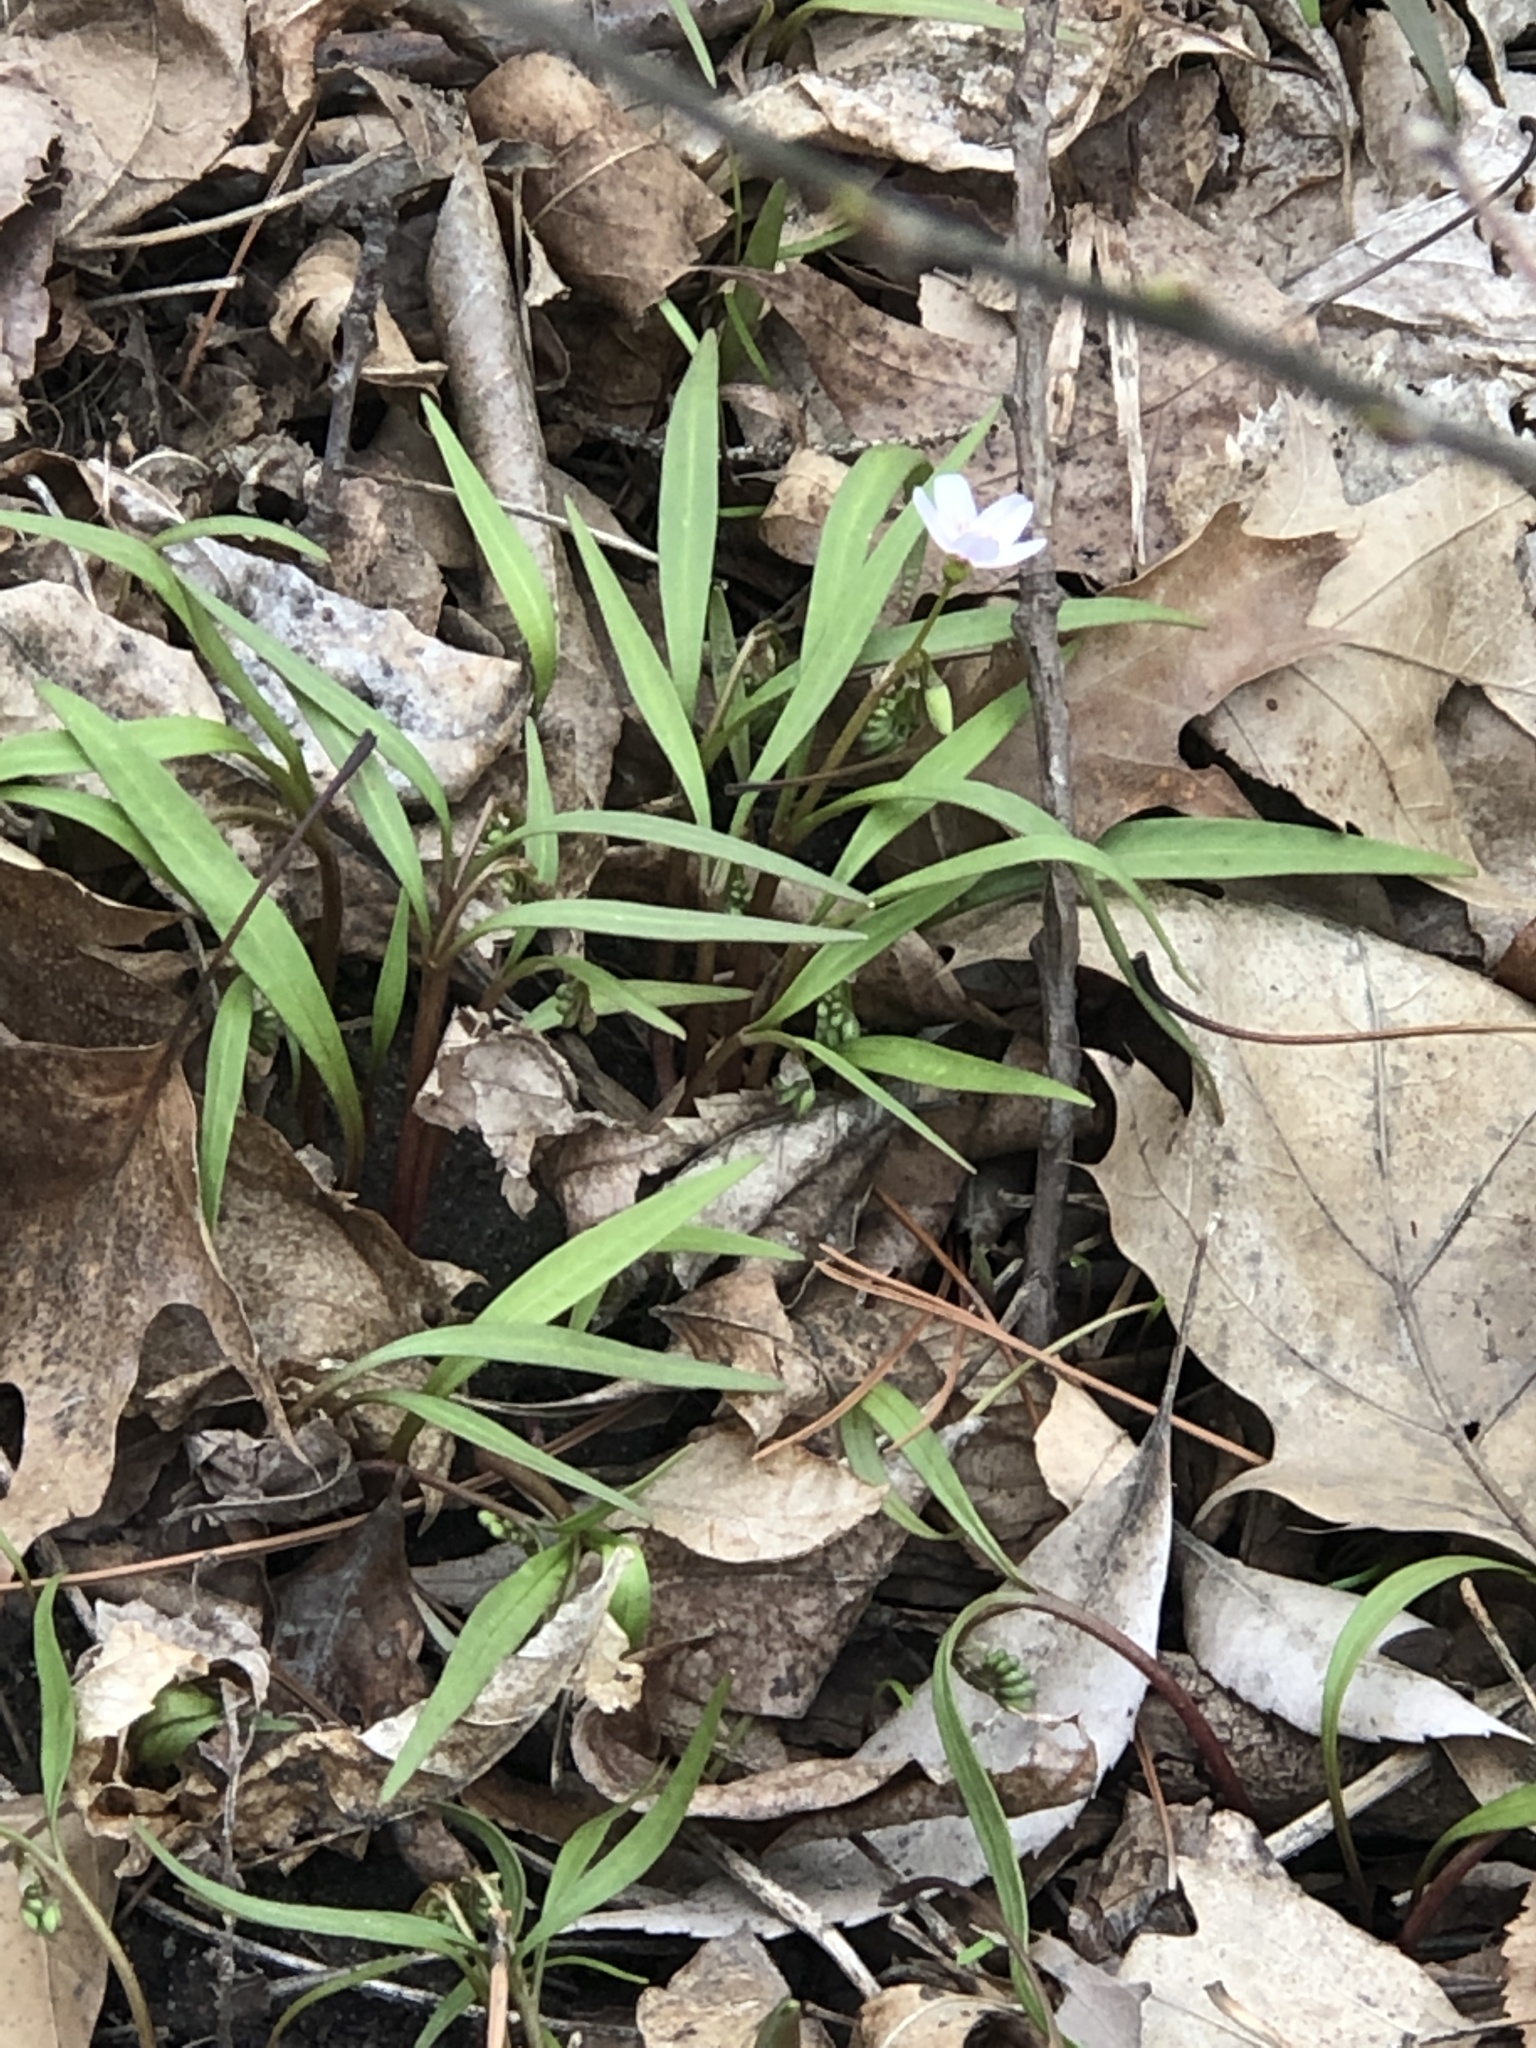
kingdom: Plantae
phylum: Tracheophyta
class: Magnoliopsida
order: Caryophyllales
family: Montiaceae
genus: Claytonia
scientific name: Claytonia virginica
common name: Virginia springbeauty
